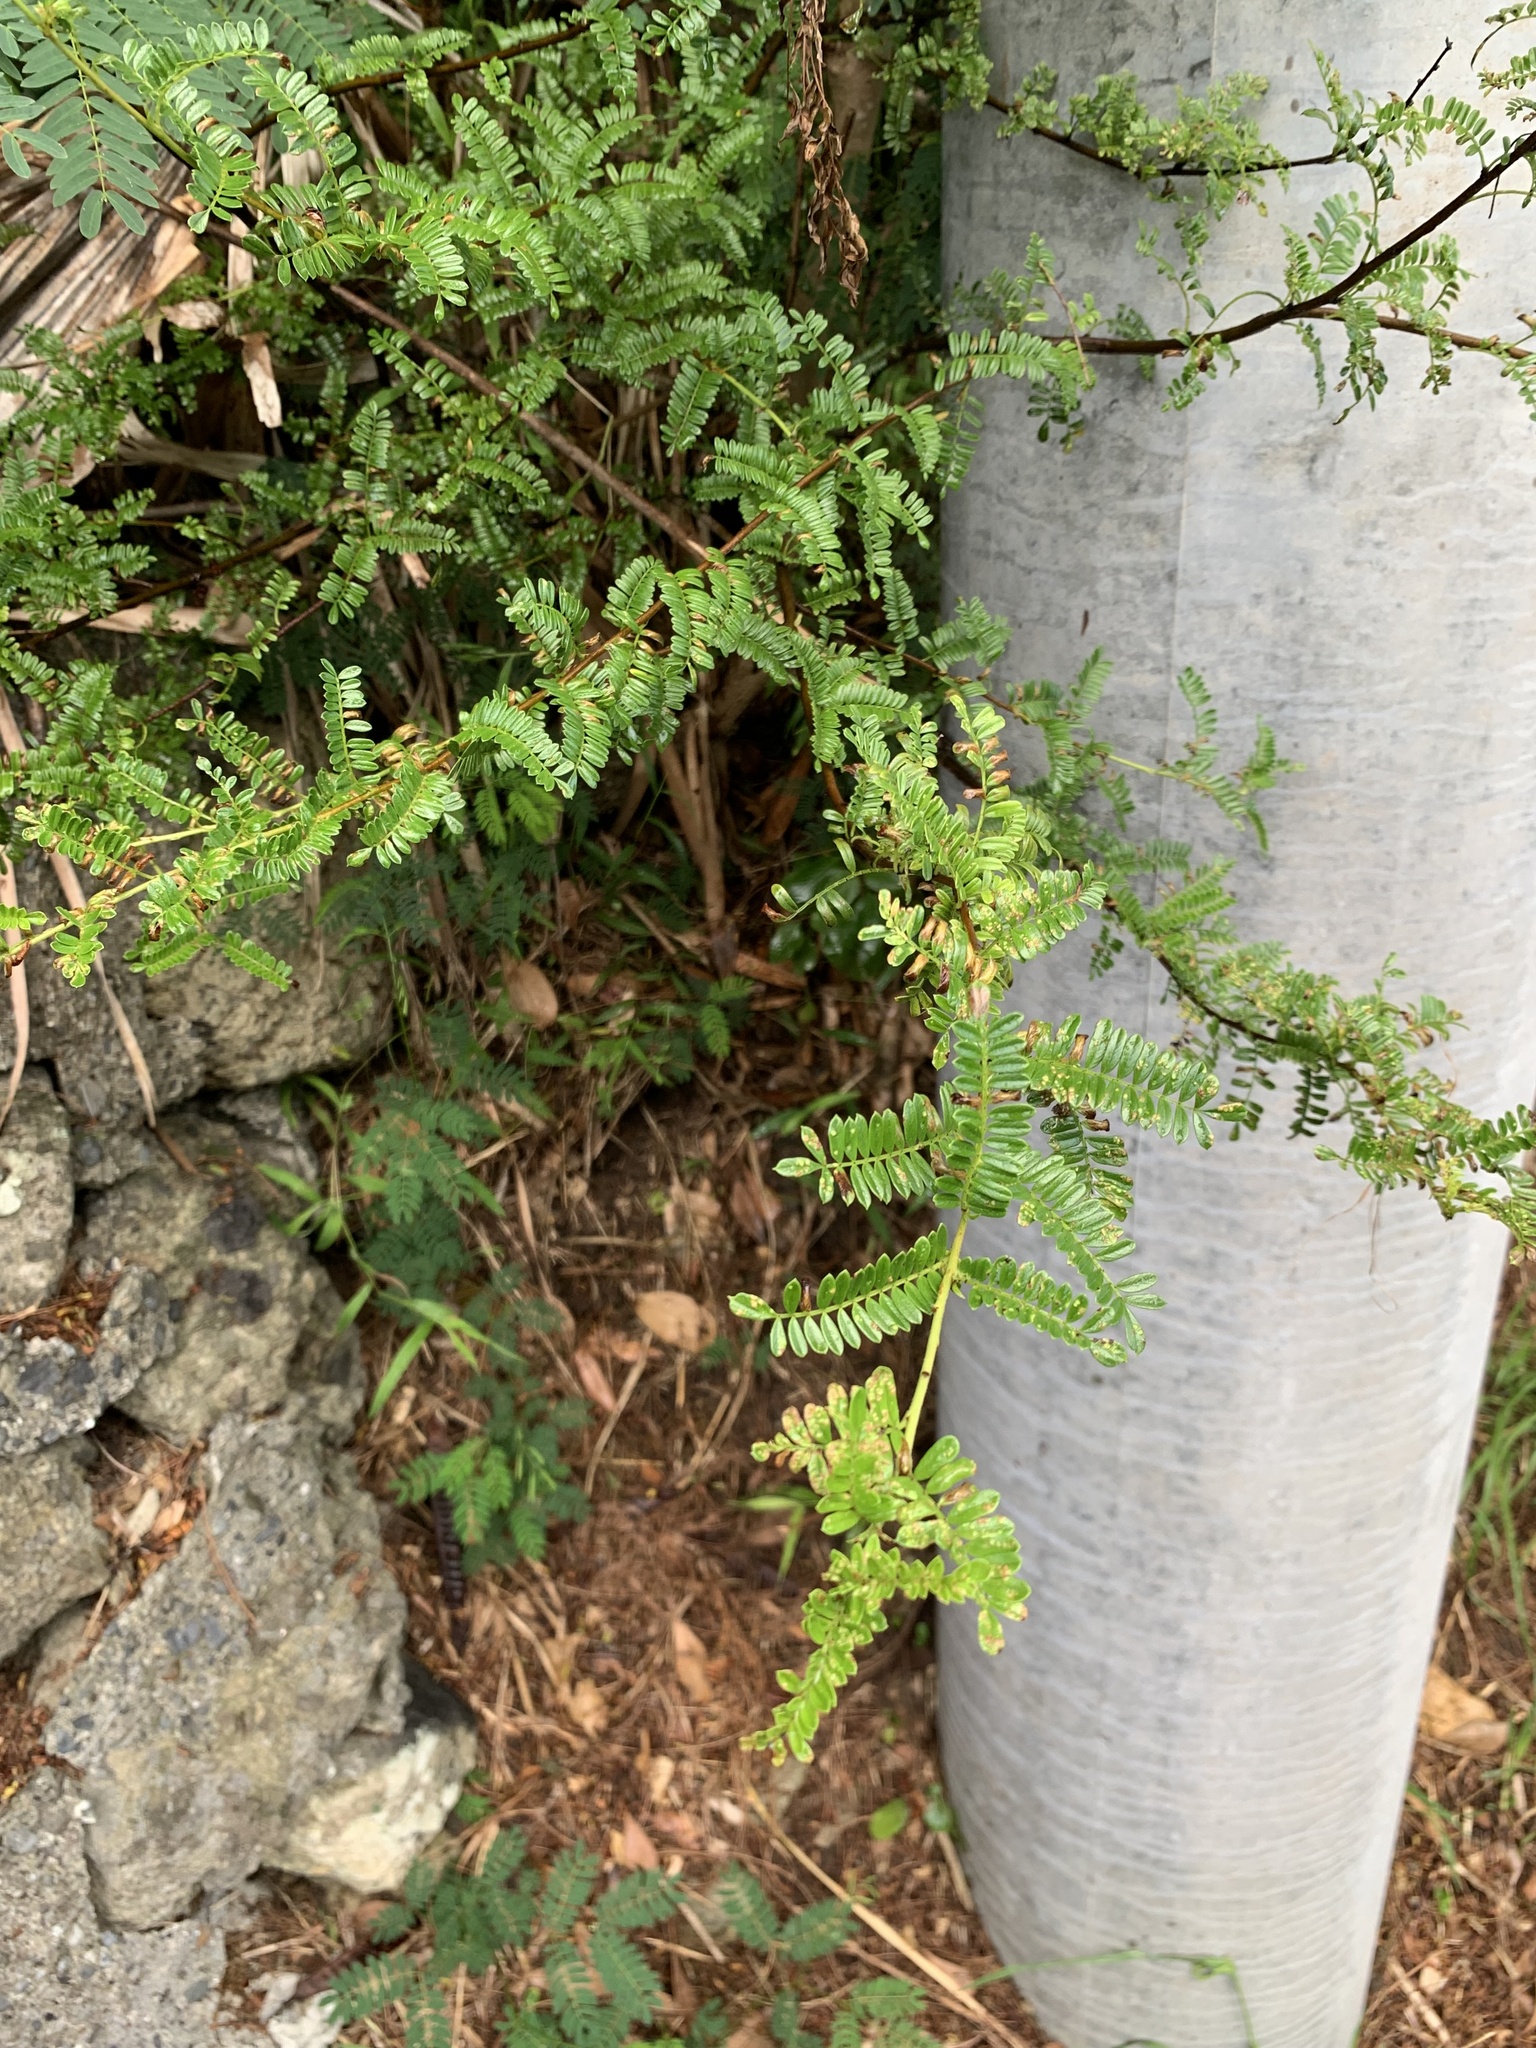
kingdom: Plantae
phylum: Tracheophyta
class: Magnoliopsida
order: Rosales
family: Rosaceae
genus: Osteomeles
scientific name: Osteomeles schwerinae
